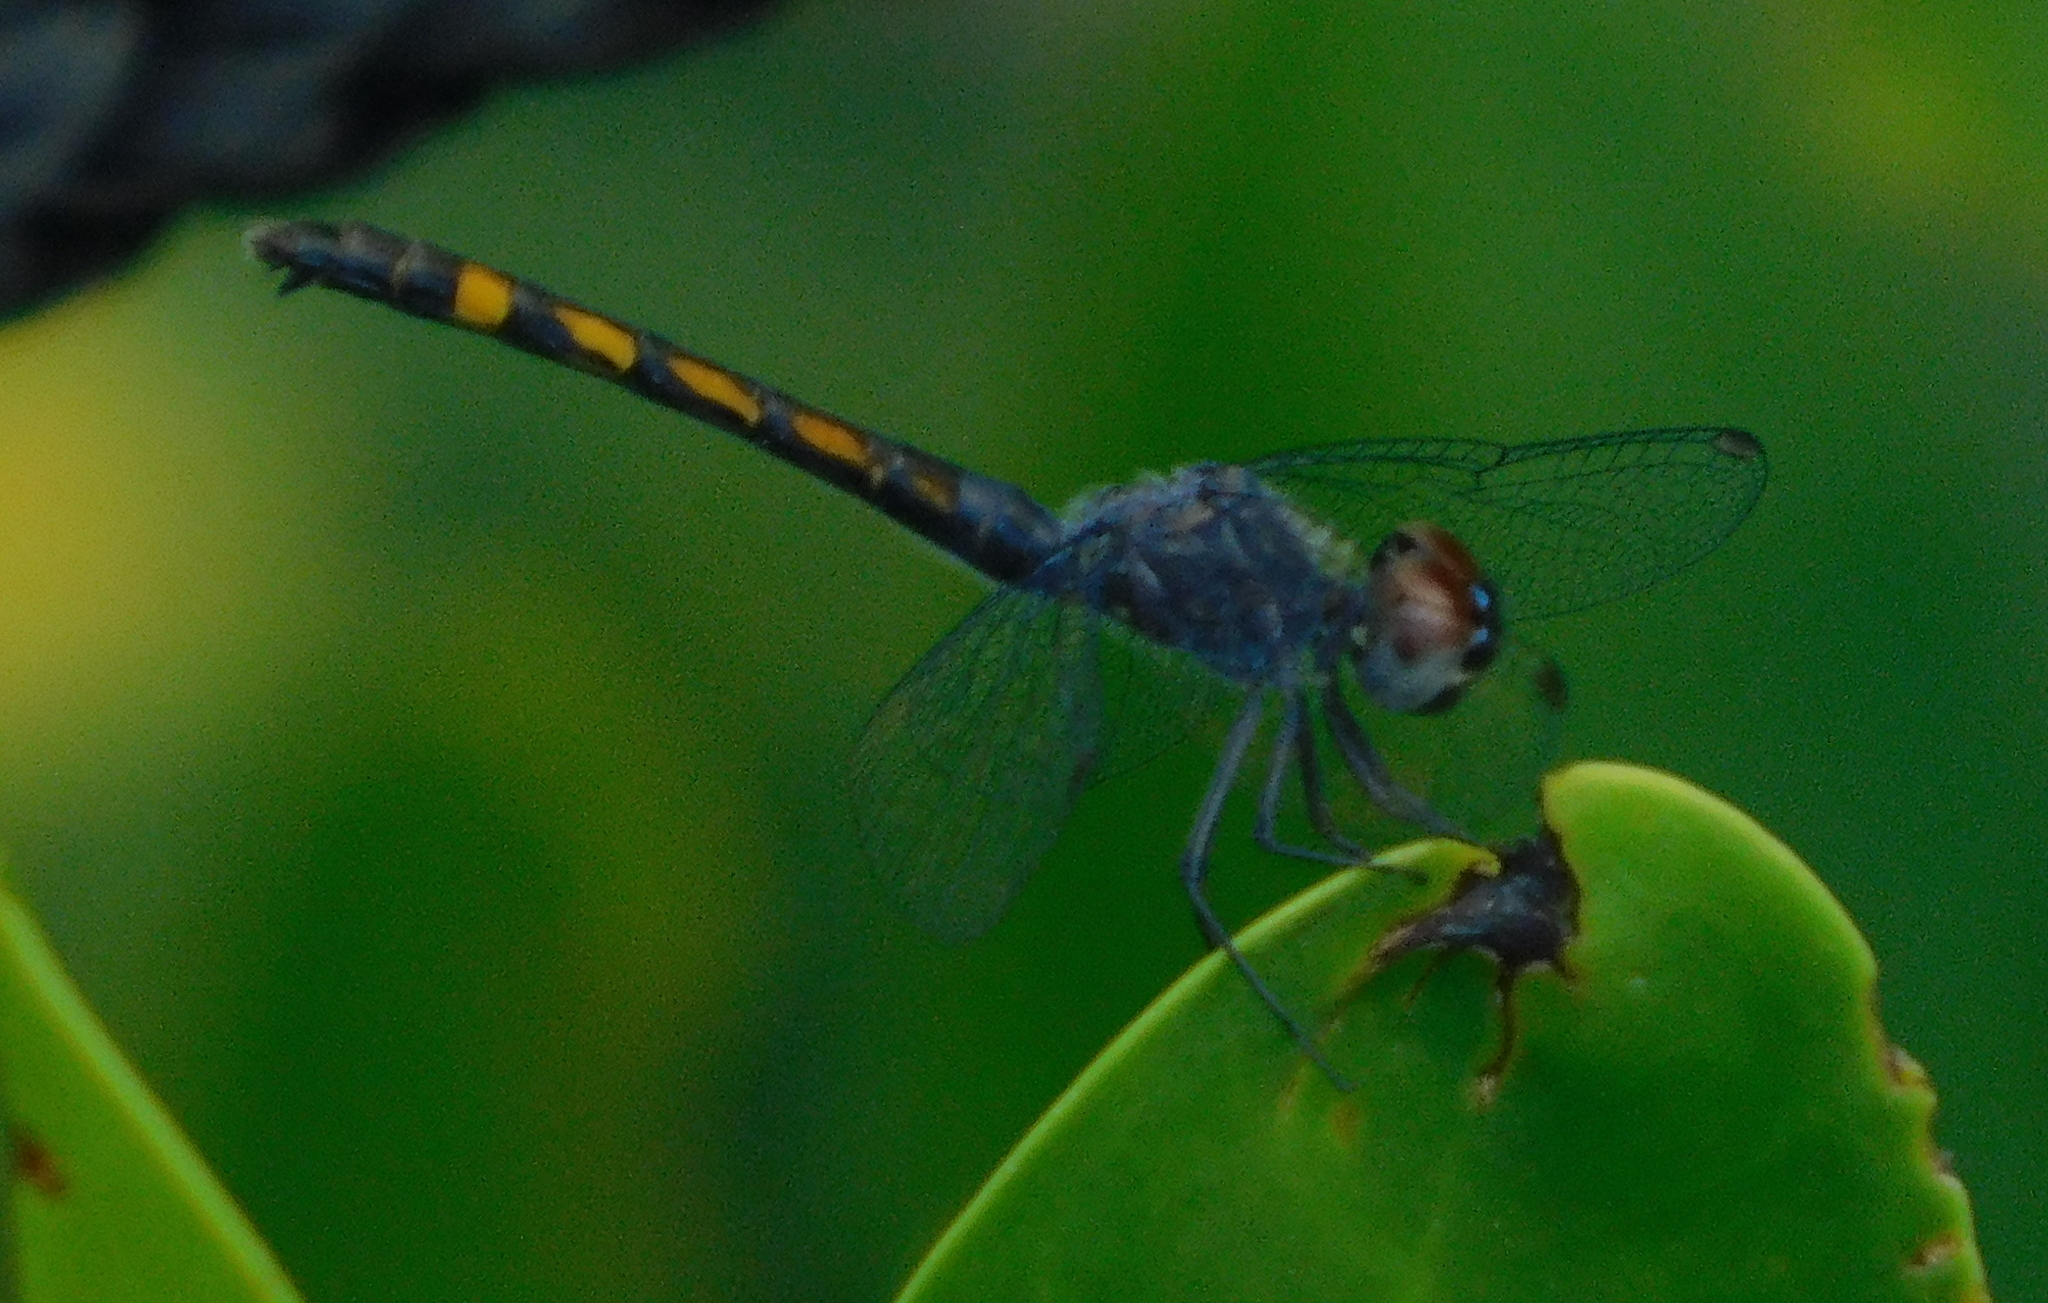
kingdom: Animalia
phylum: Arthropoda
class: Insecta
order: Odonata
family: Libellulidae
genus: Erythrodiplax
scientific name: Erythrodiplax berenice
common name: Seaside dragonlet
